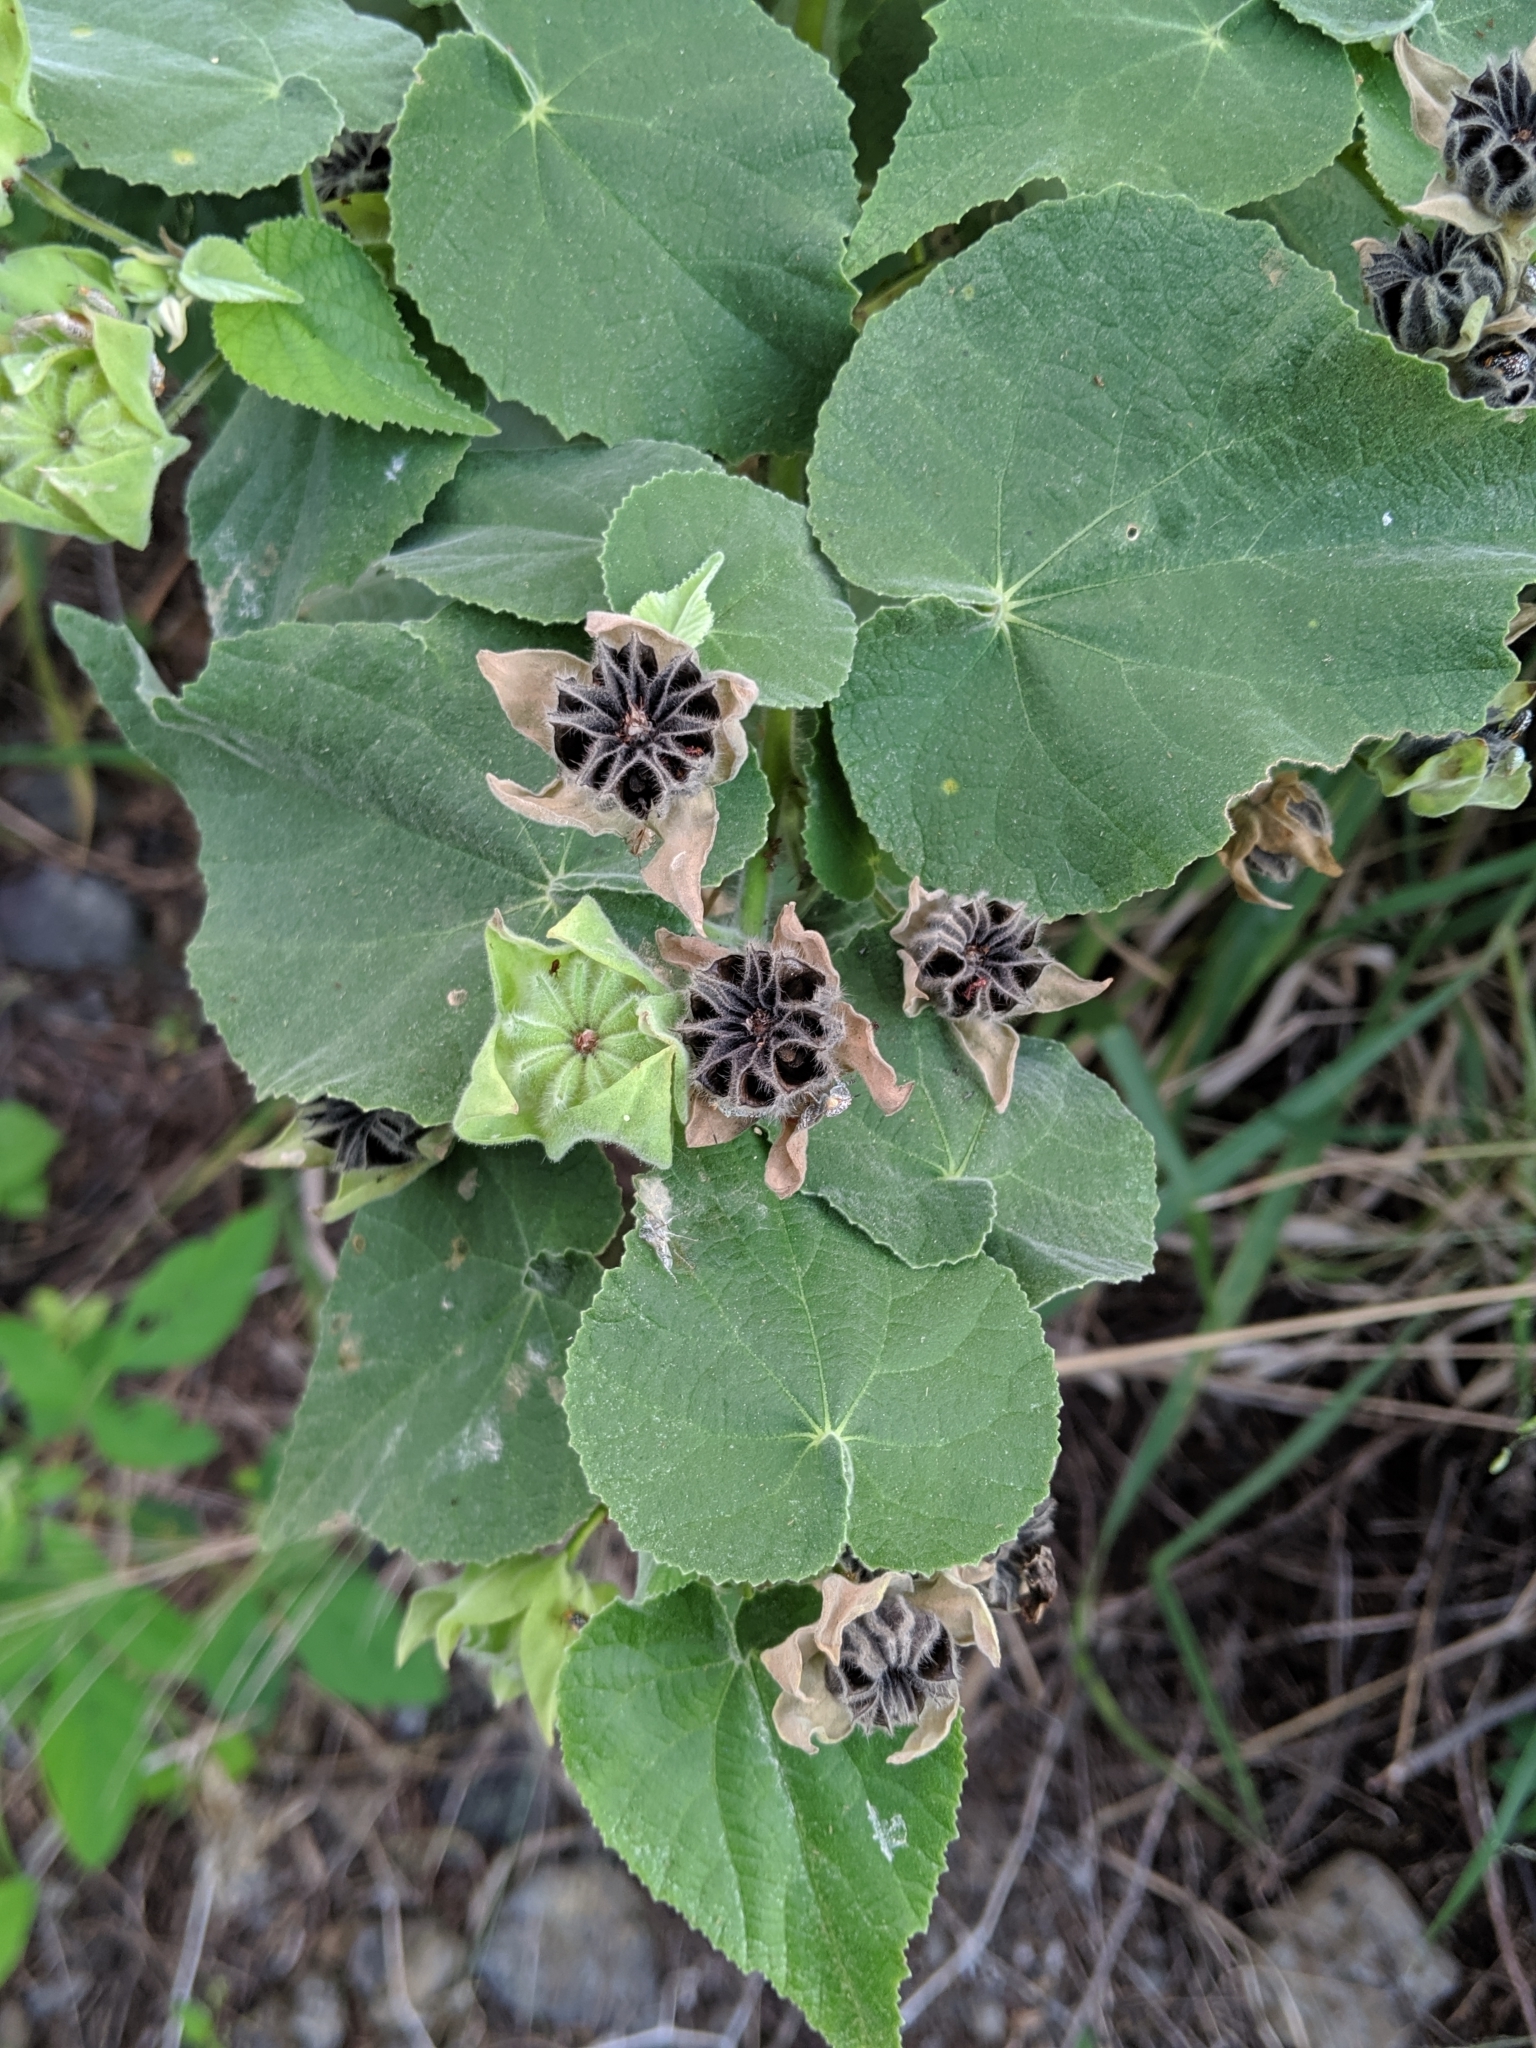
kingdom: Plantae
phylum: Tracheophyta
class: Magnoliopsida
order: Malvales
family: Malvaceae
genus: Abutilon
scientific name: Abutilon grandifolium
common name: Hairy abutilon
